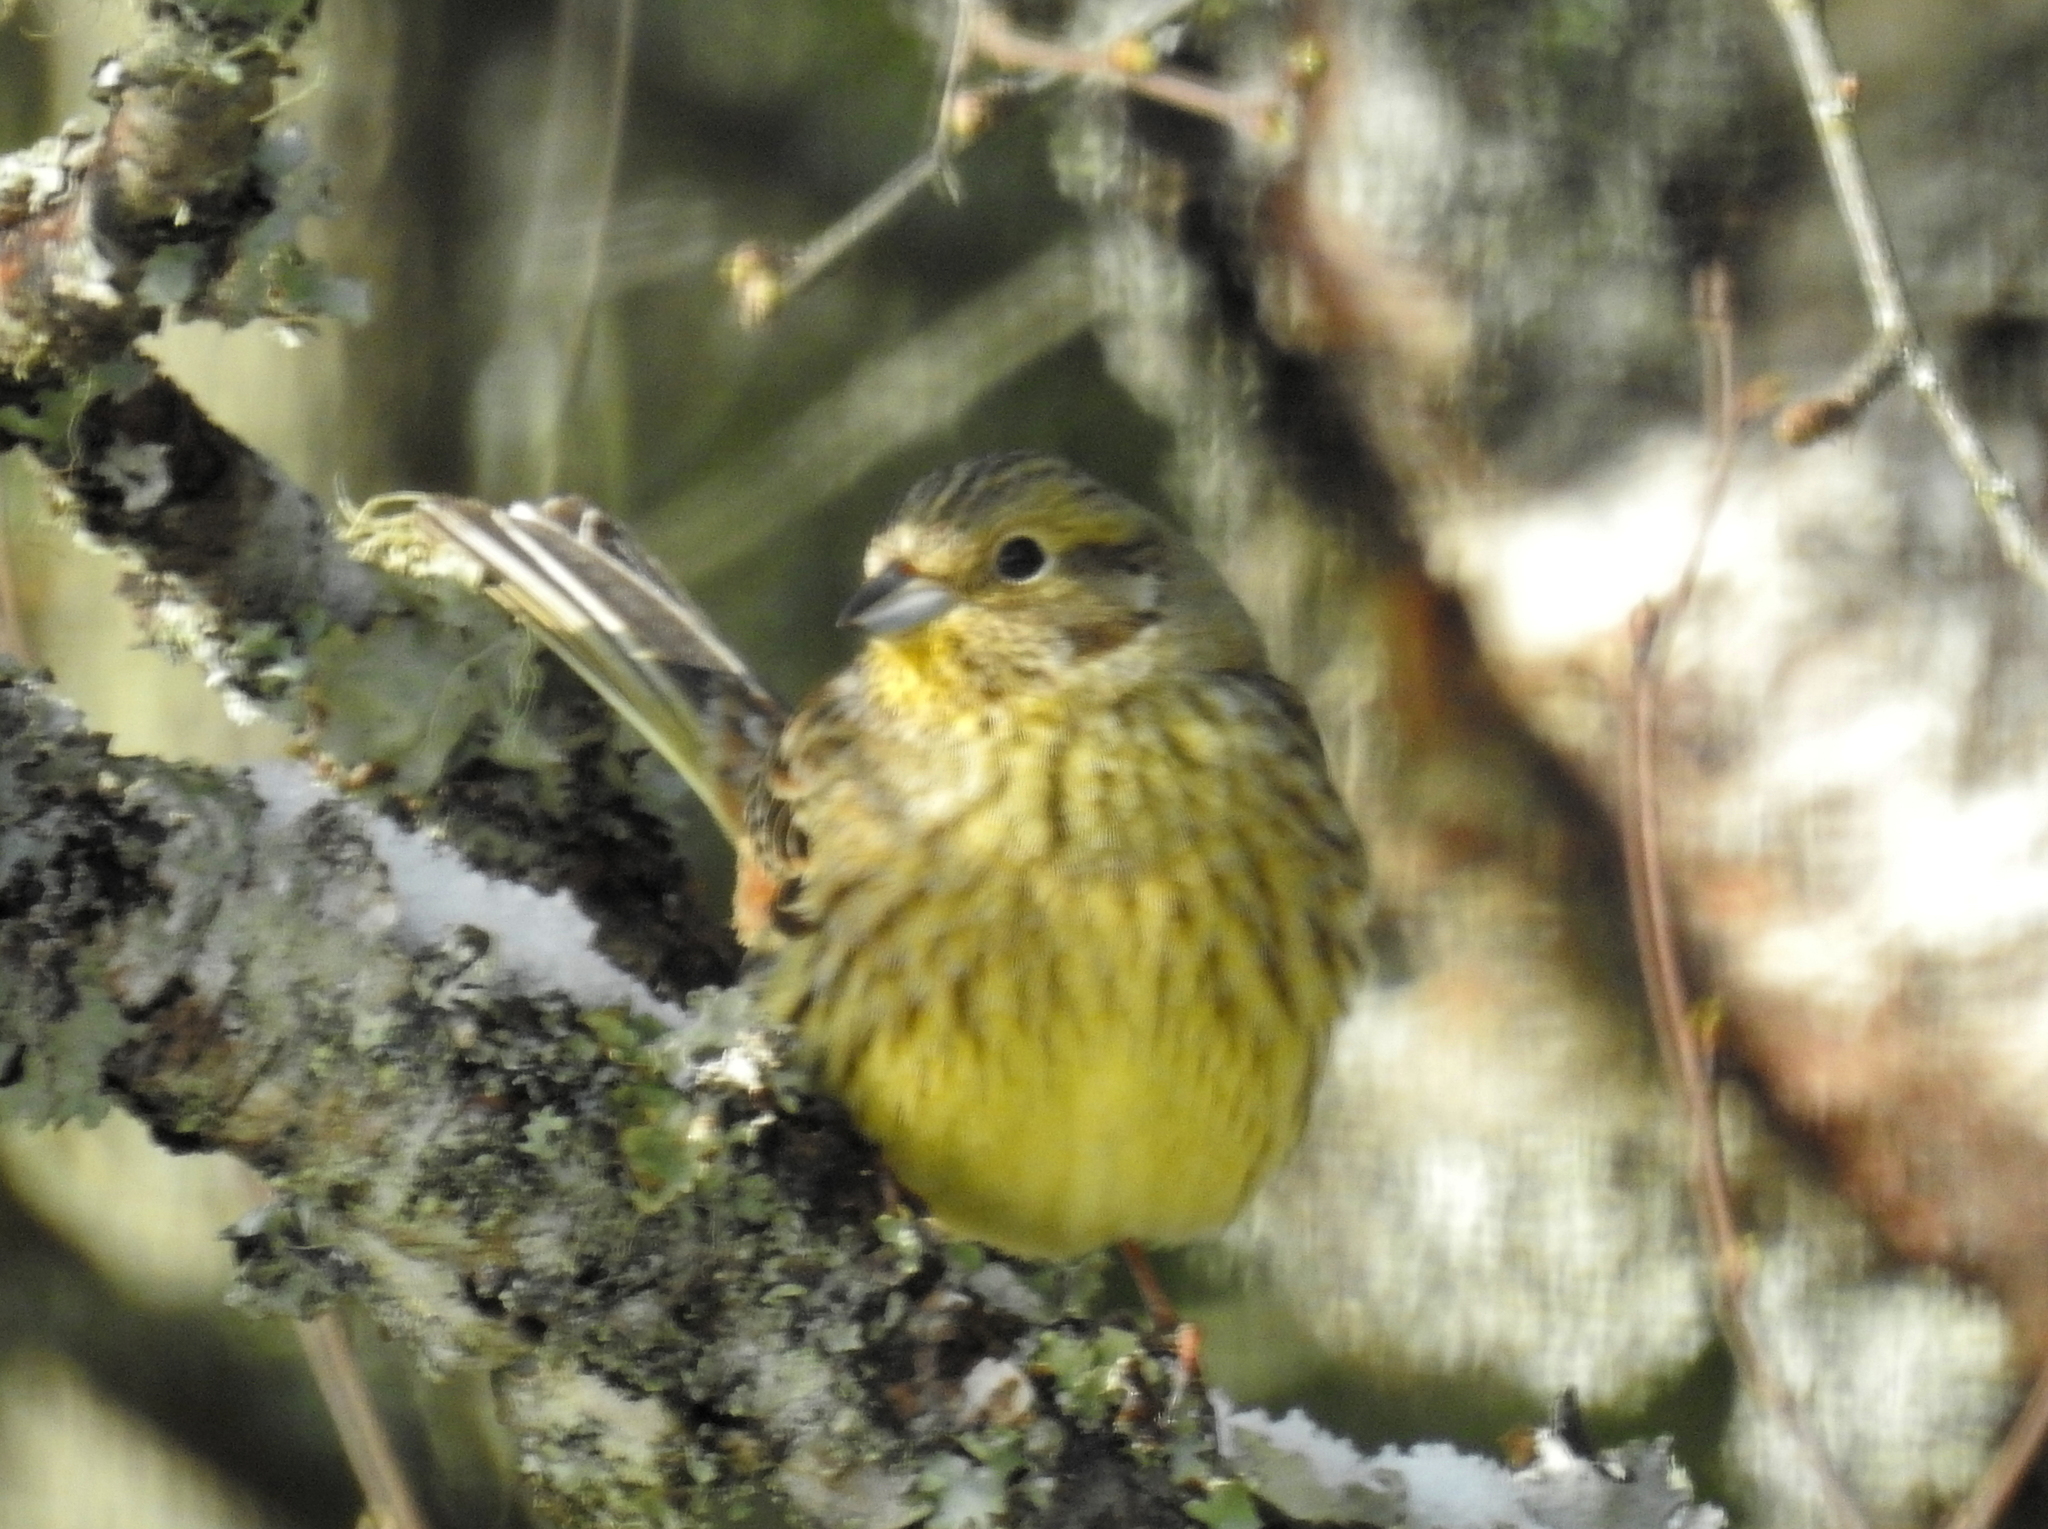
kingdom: Animalia
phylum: Chordata
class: Aves
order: Passeriformes
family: Emberizidae
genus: Emberiza
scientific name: Emberiza citrinella
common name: Yellowhammer
